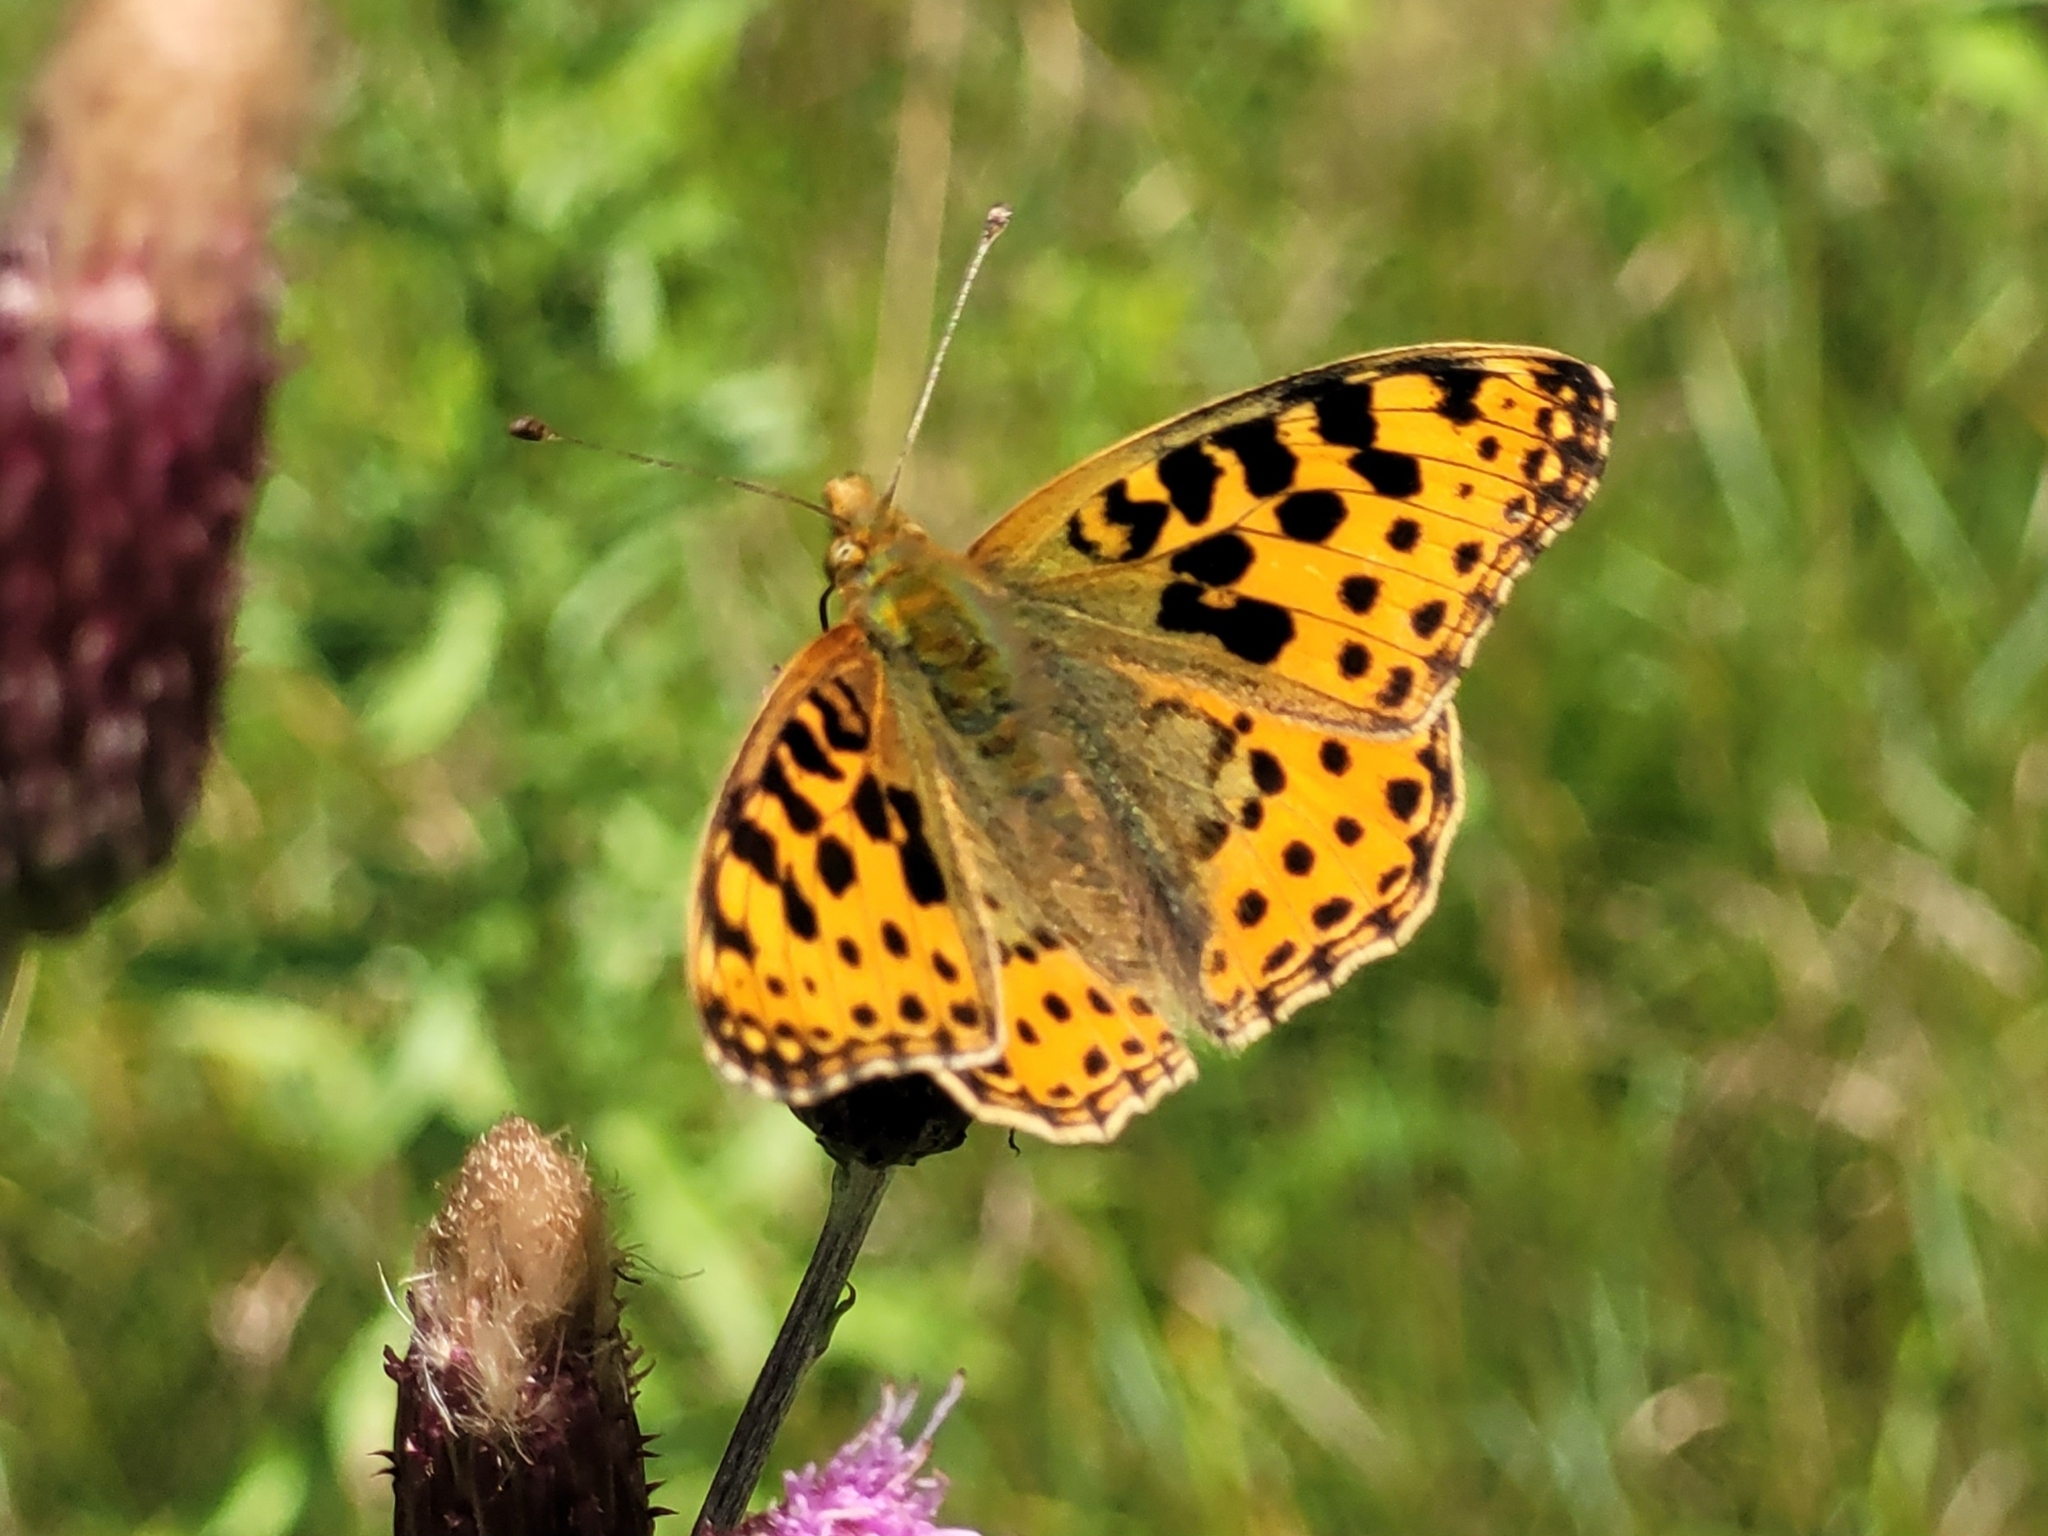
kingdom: Animalia
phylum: Arthropoda
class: Insecta
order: Lepidoptera
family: Nymphalidae
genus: Issoria
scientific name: Issoria lathonia
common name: Queen of spain fritillary
